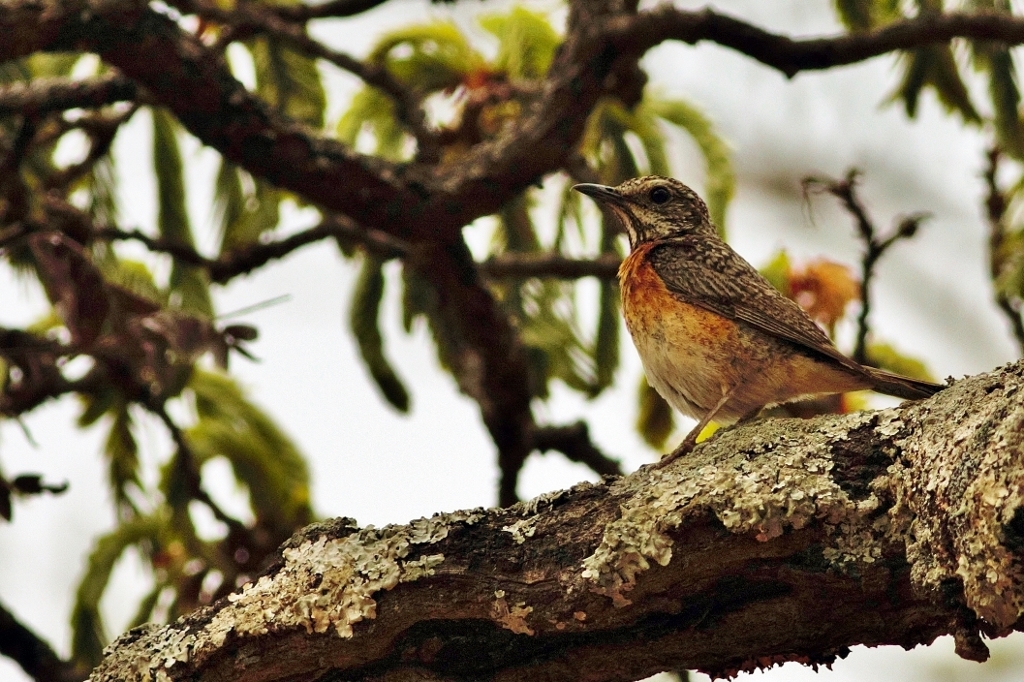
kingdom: Animalia
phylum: Chordata
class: Aves
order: Passeriformes
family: Muscicapidae
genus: Monticola
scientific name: Monticola angolensis
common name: Miombo rock thrush
